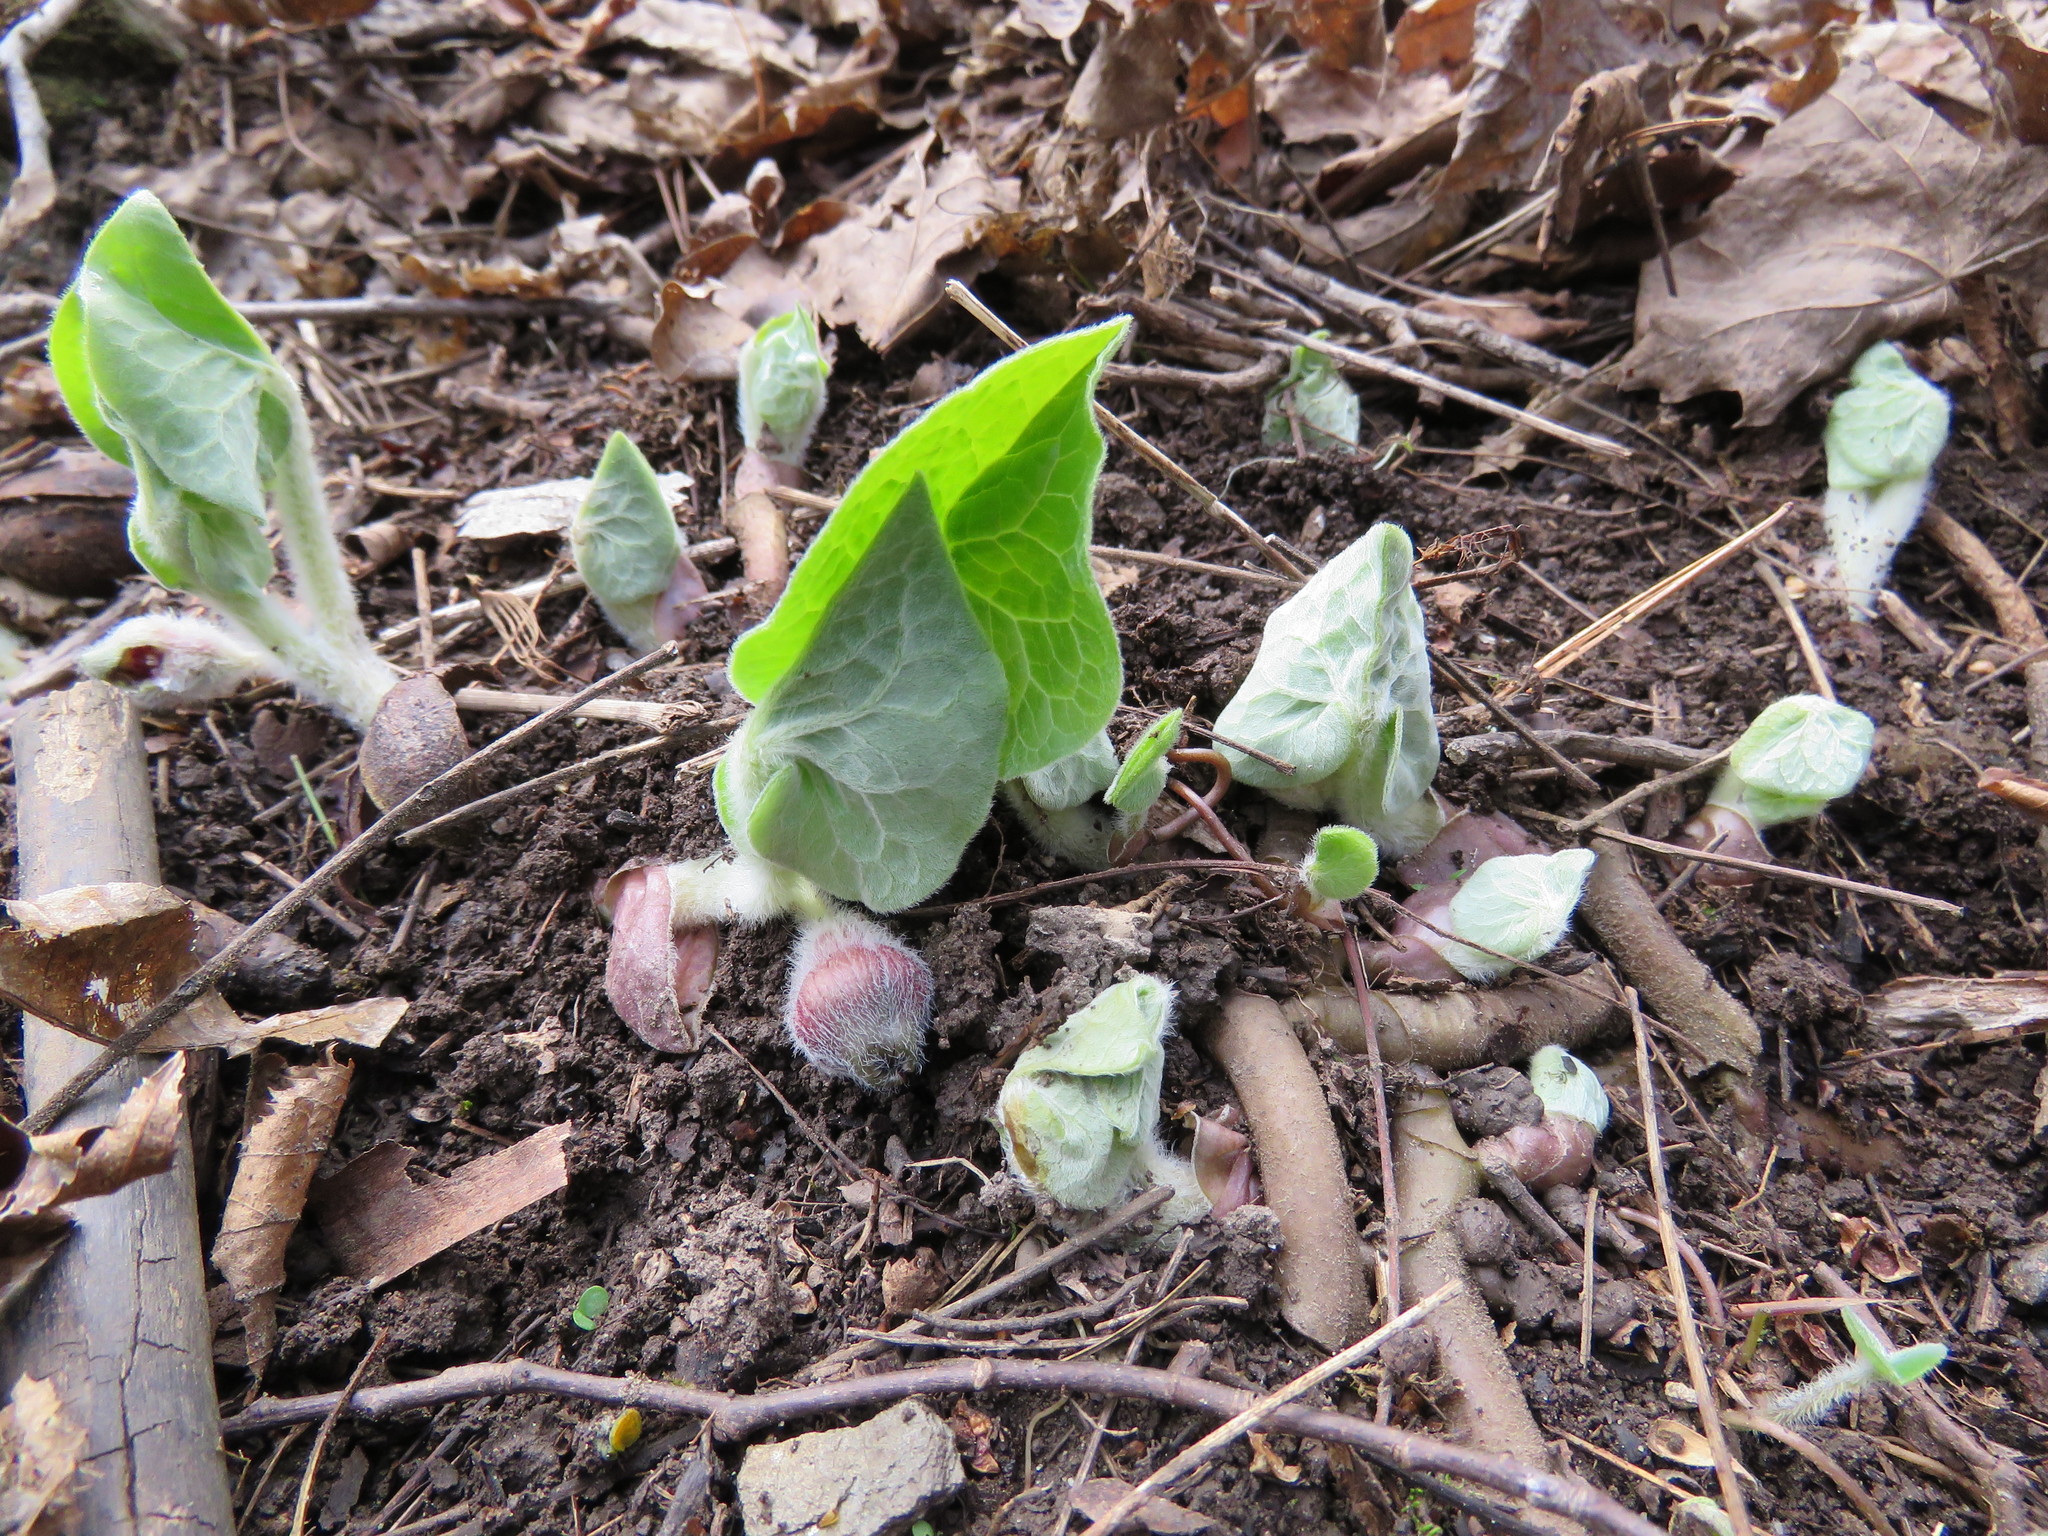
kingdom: Plantae
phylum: Tracheophyta
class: Magnoliopsida
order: Piperales
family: Aristolochiaceae
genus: Asarum
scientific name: Asarum canadense
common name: Wild ginger
